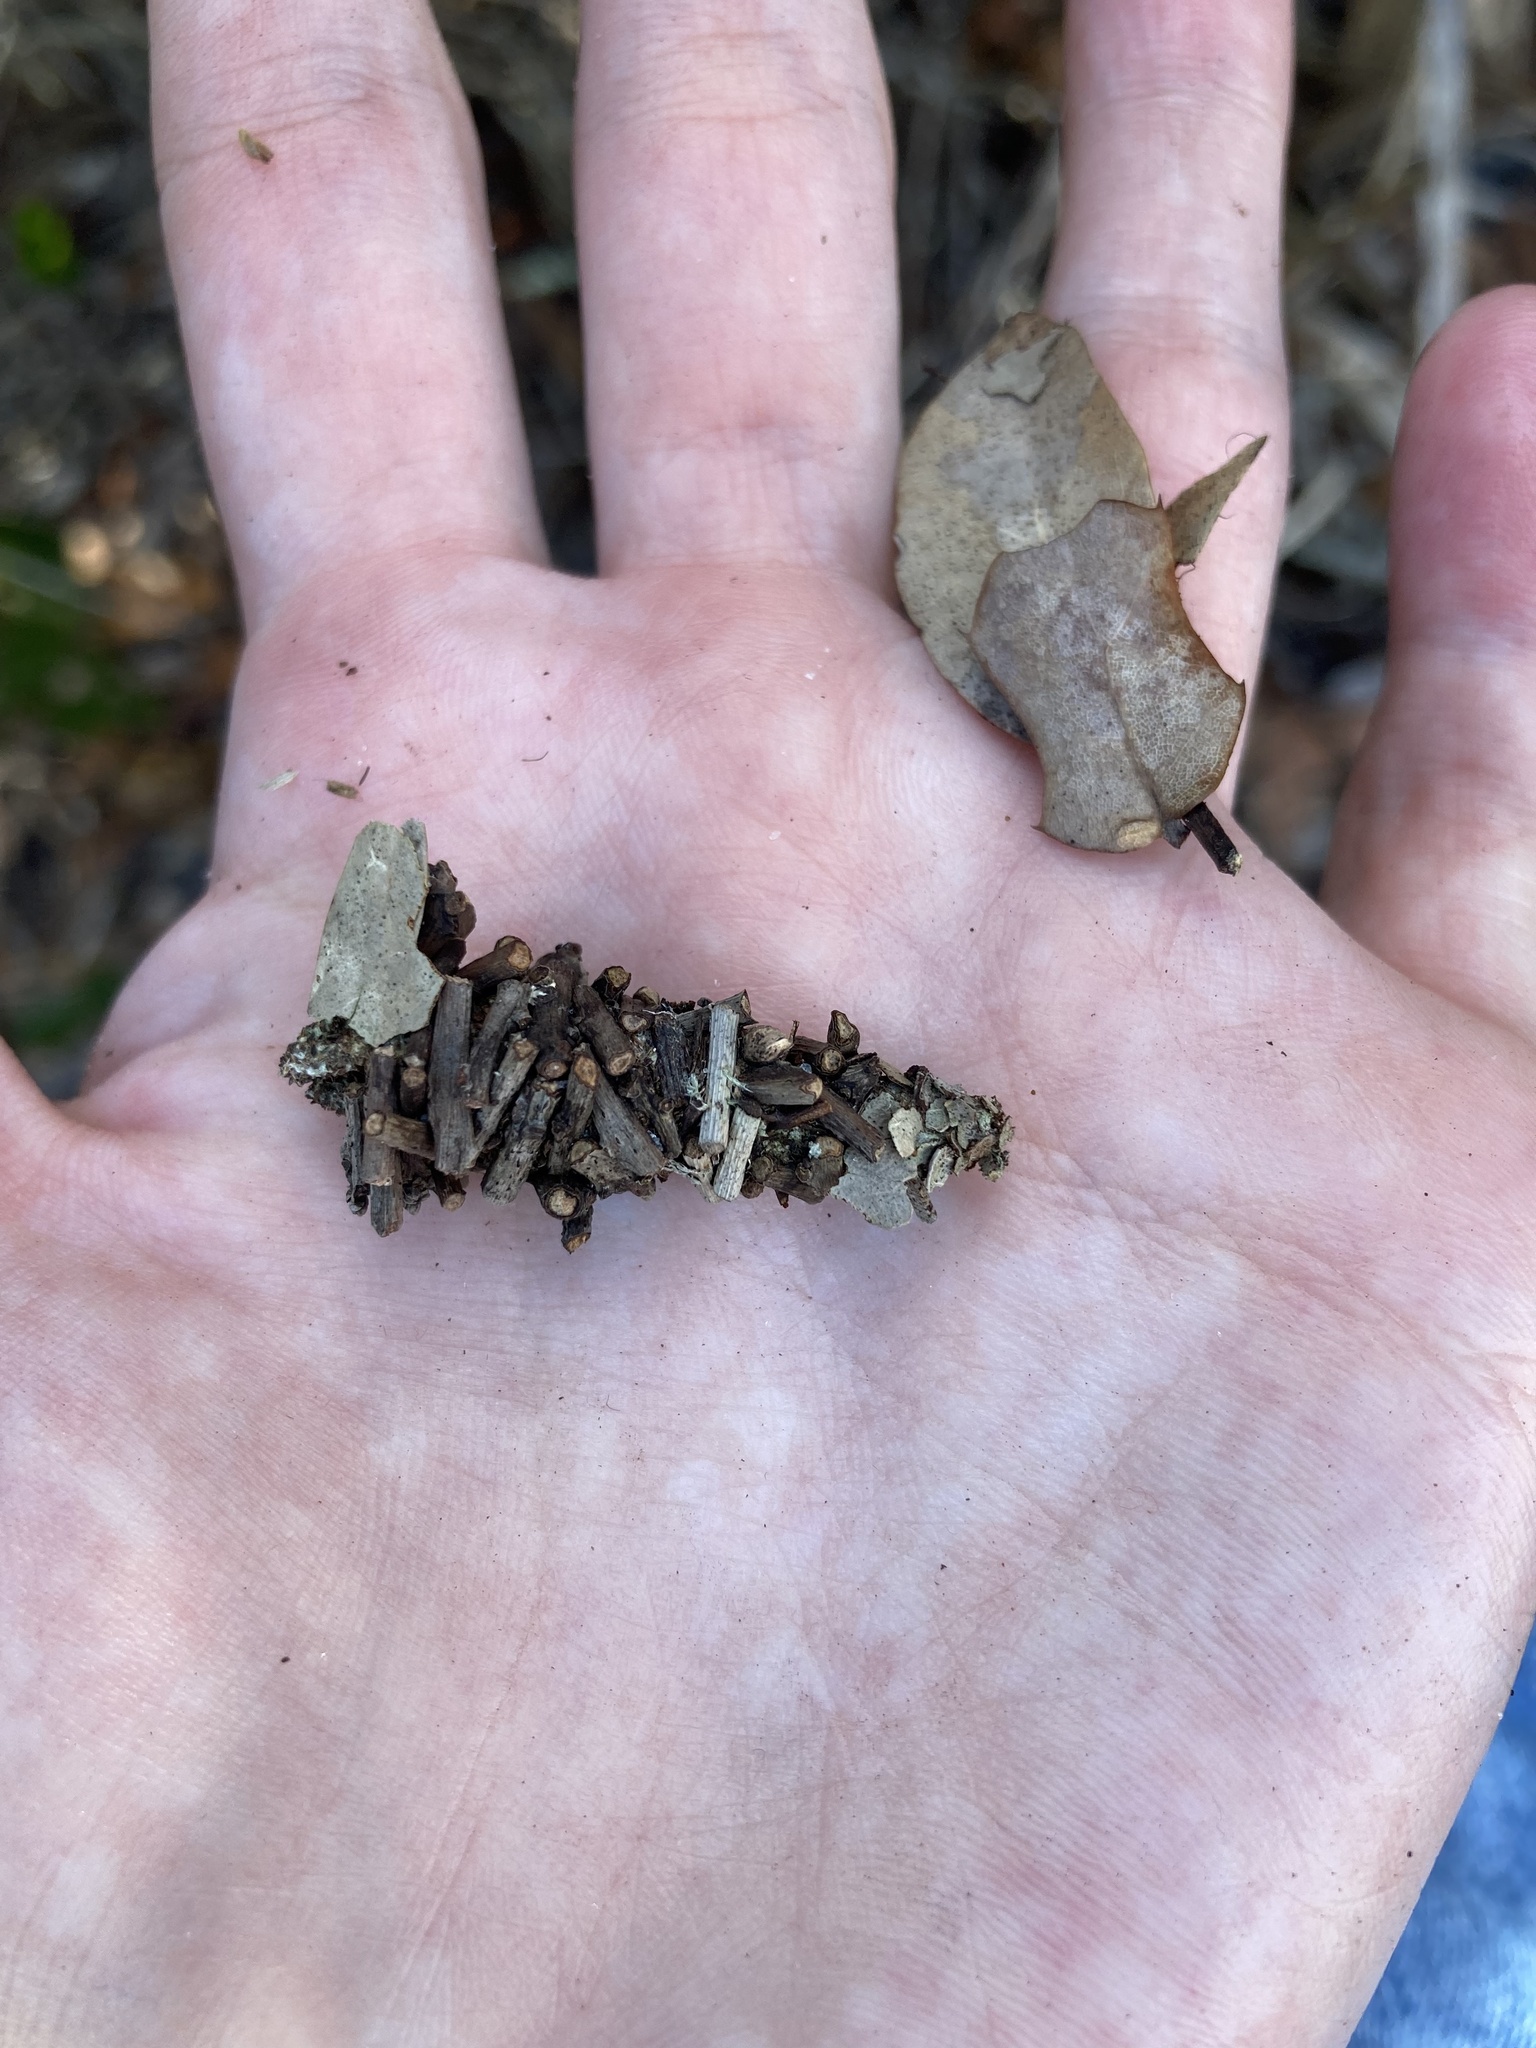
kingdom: Animalia
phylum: Arthropoda
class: Insecta
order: Lepidoptera
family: Psychidae
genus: Oiketicus
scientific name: Oiketicus
